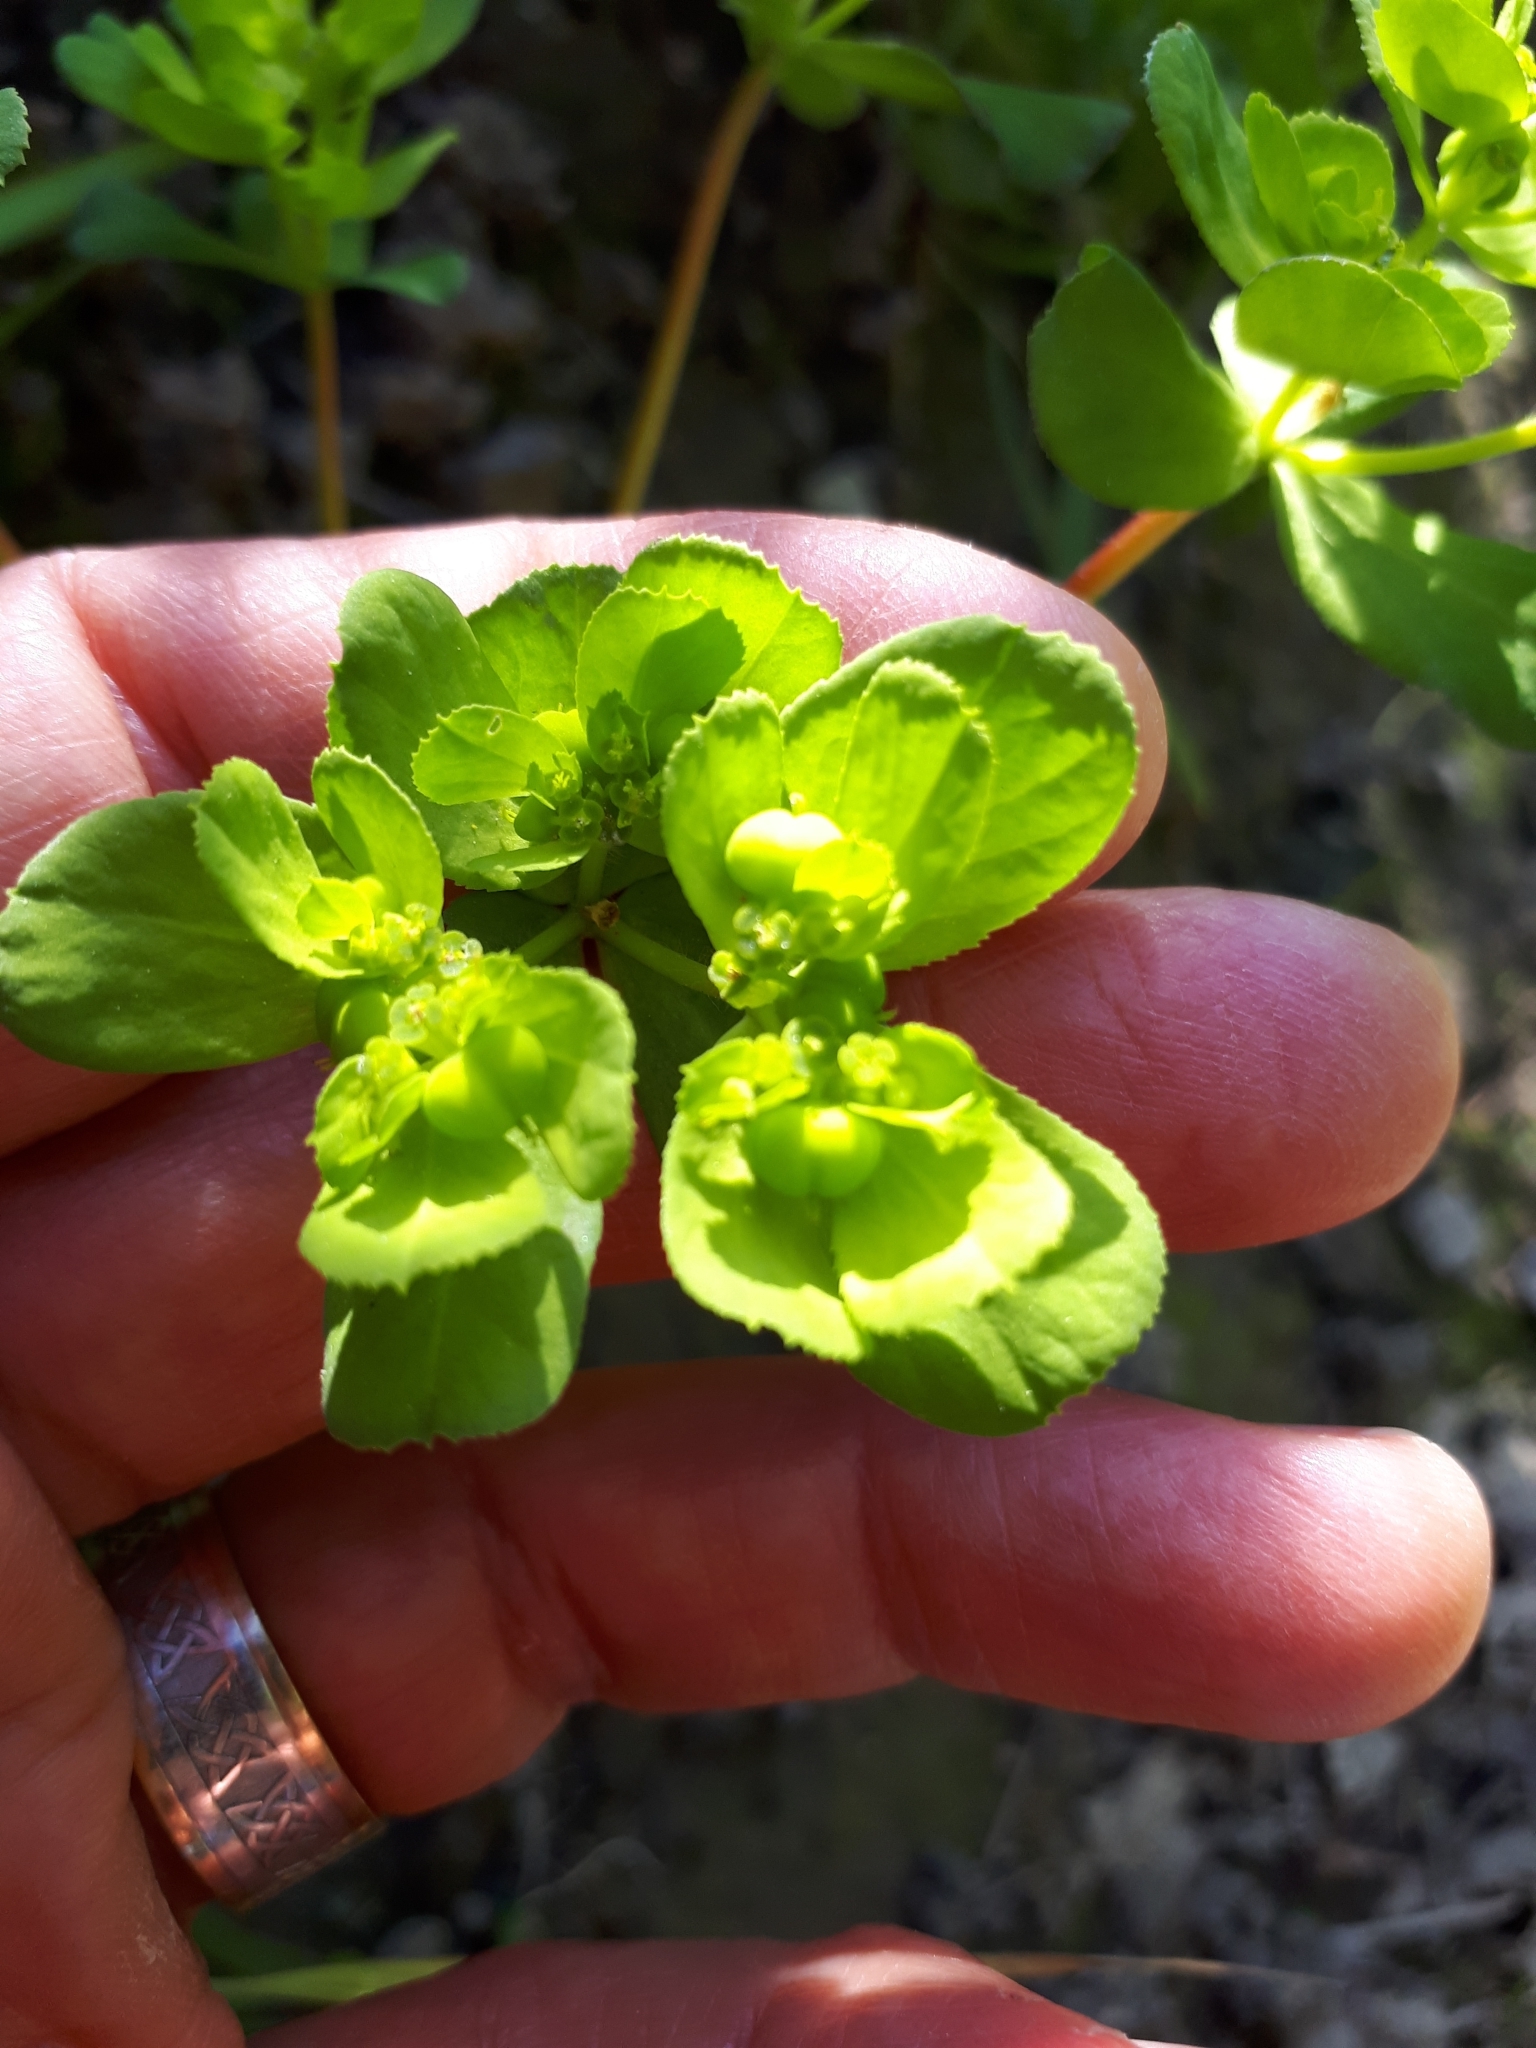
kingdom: Plantae
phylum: Tracheophyta
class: Magnoliopsida
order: Malpighiales
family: Euphorbiaceae
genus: Euphorbia
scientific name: Euphorbia helioscopia
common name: Sun spurge
